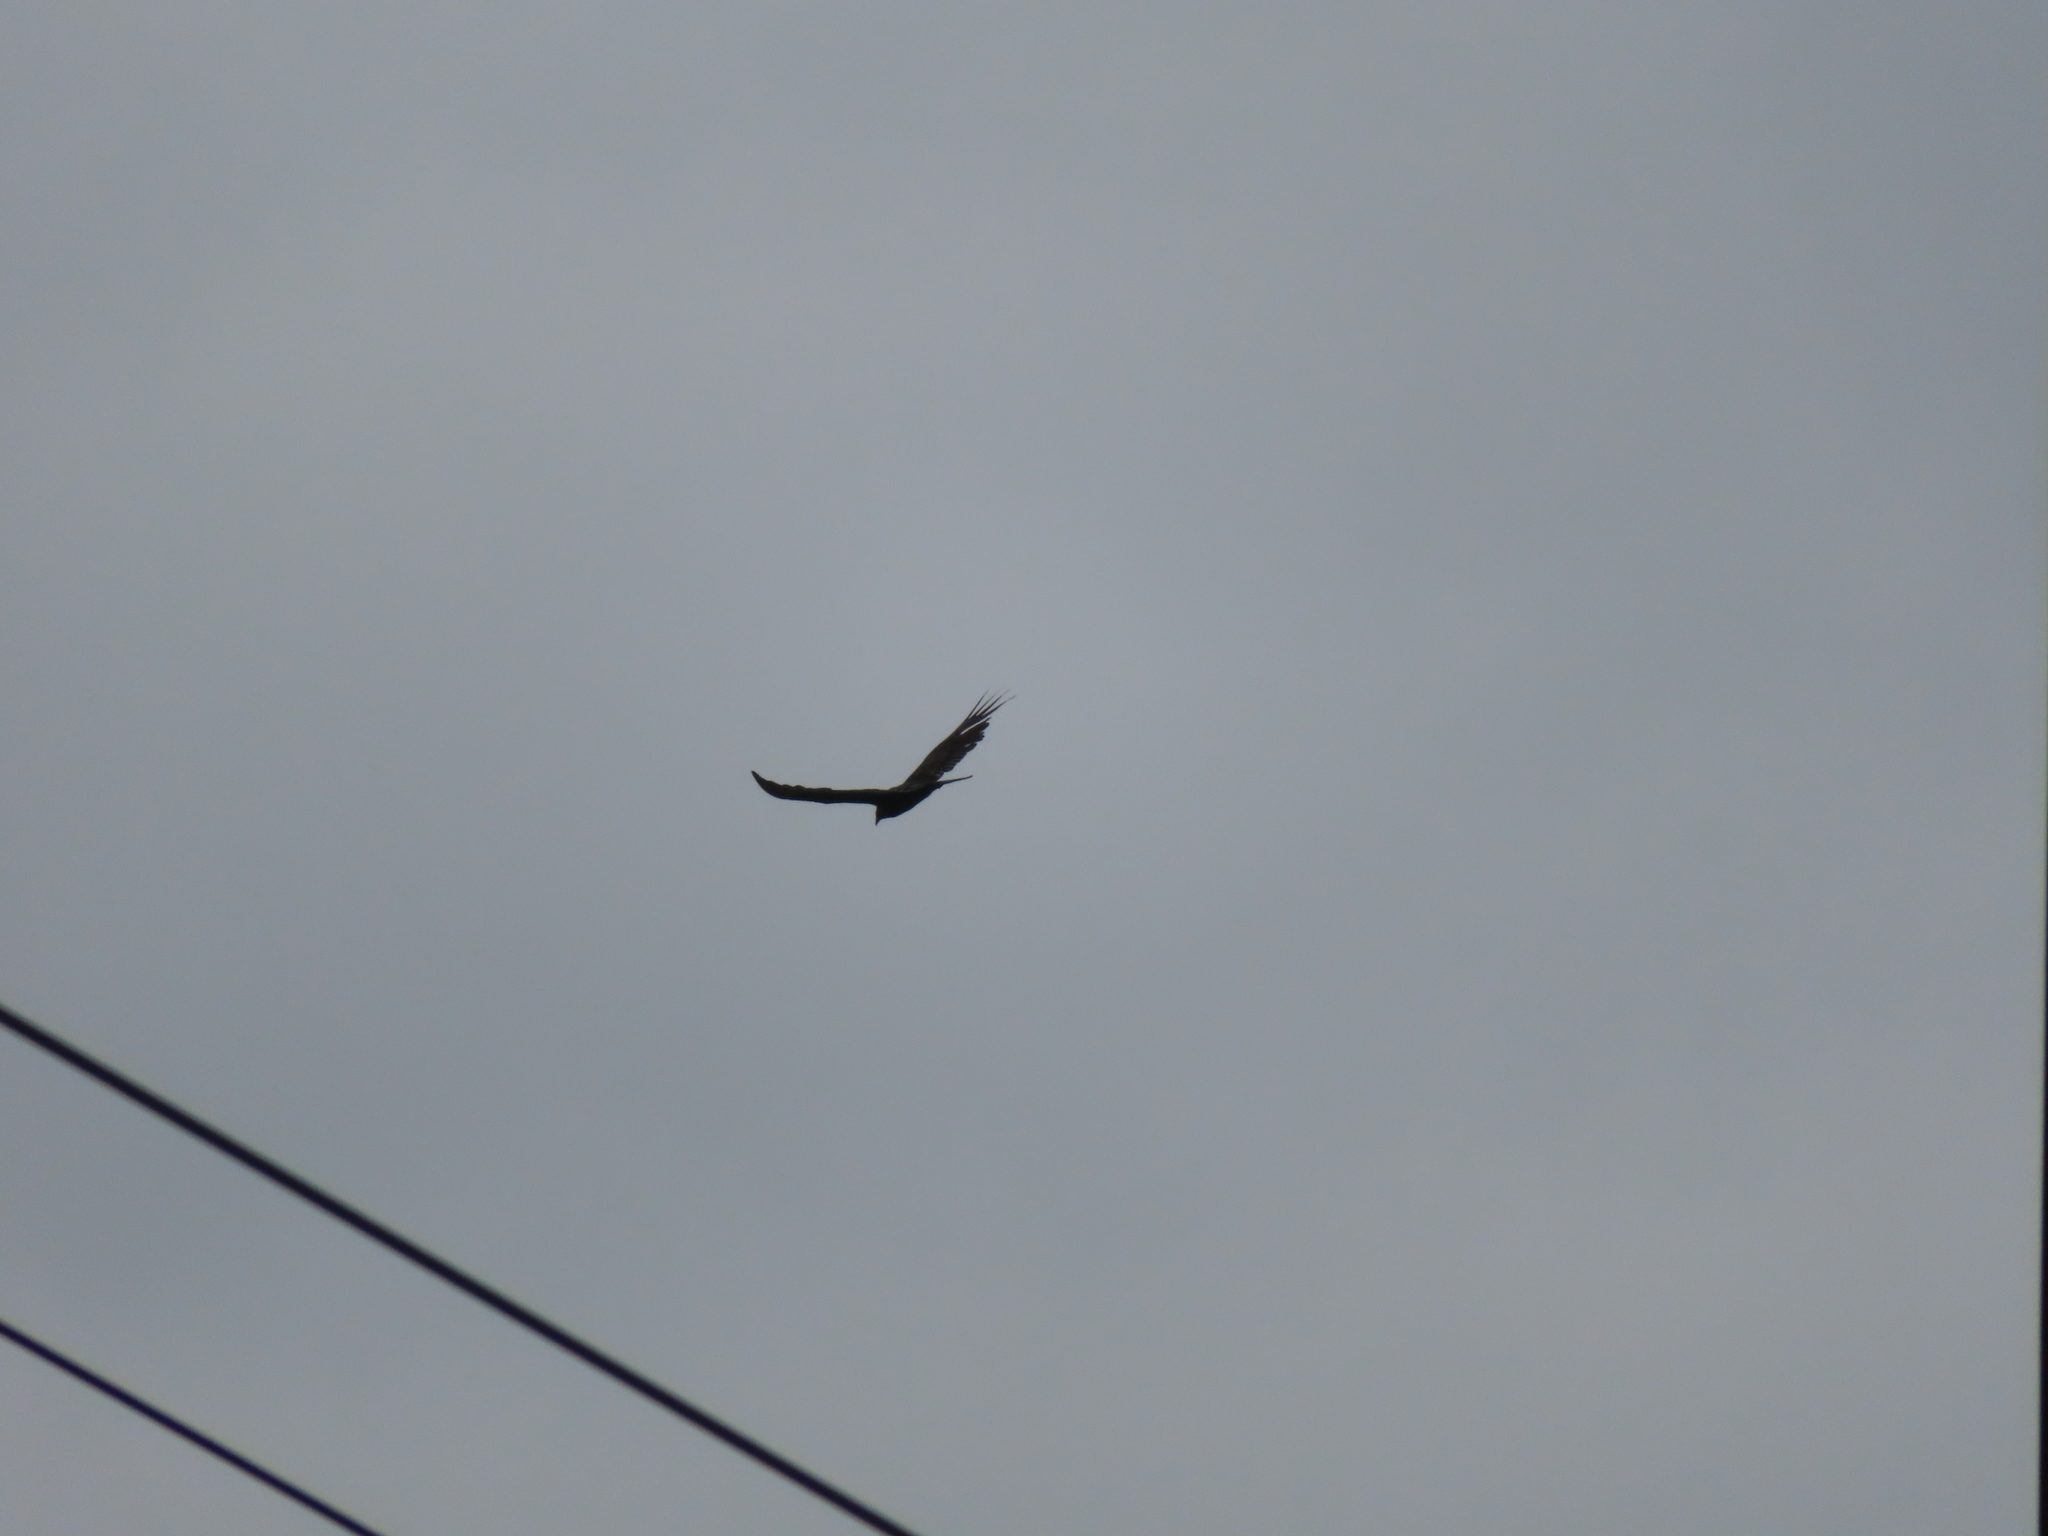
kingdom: Animalia
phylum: Chordata
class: Aves
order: Accipitriformes
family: Cathartidae
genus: Cathartes
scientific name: Cathartes aura
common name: Turkey vulture
